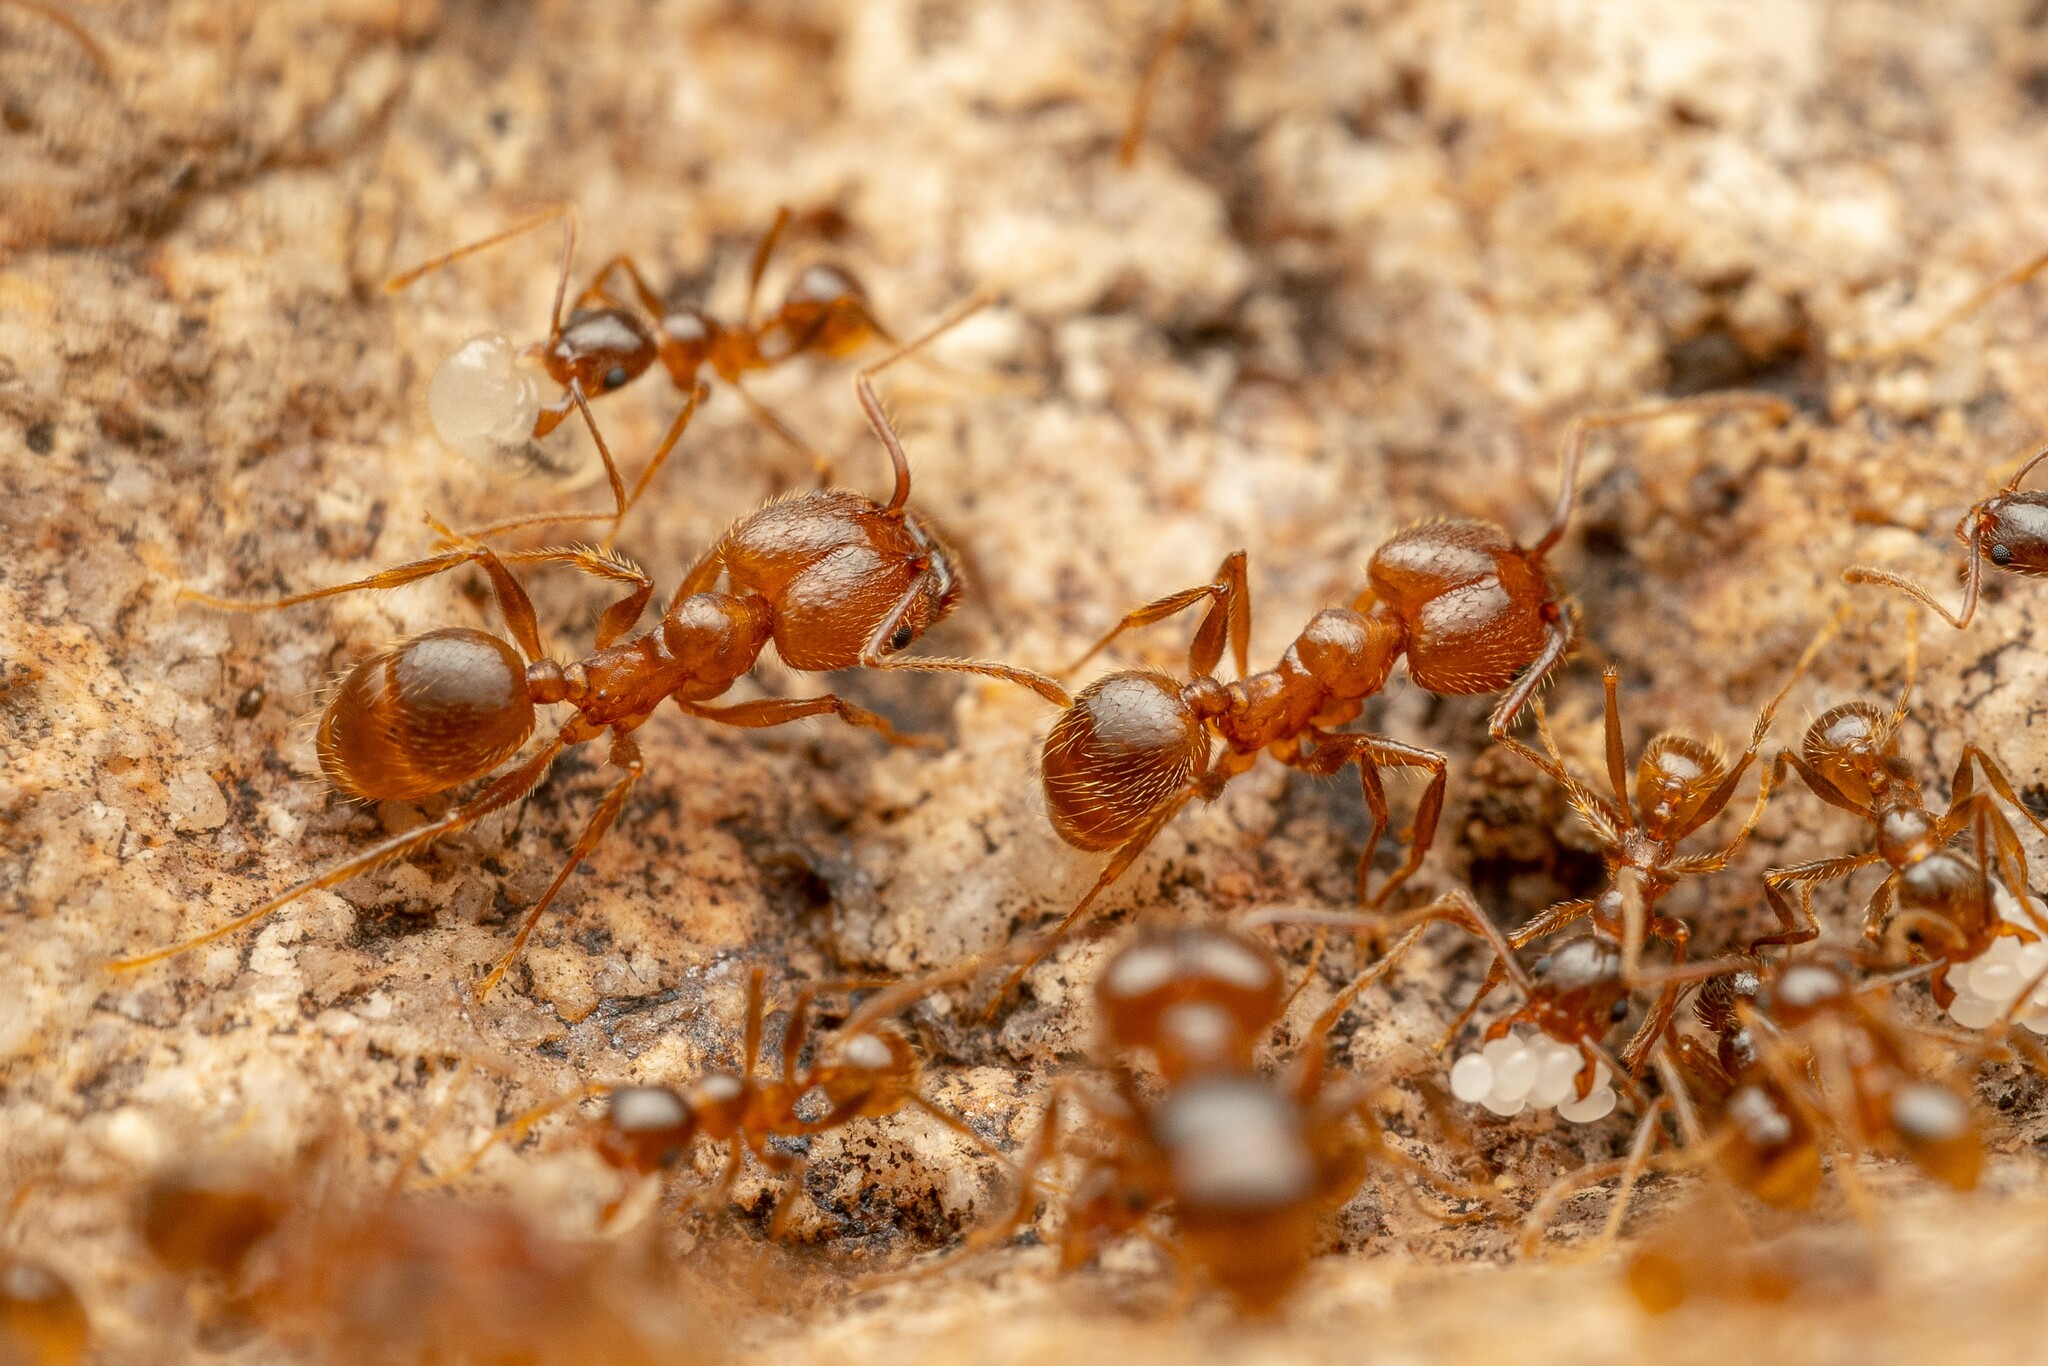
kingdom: Animalia
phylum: Arthropoda
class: Insecta
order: Hymenoptera
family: Formicidae
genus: Pheidole
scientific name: Pheidole hyatti
